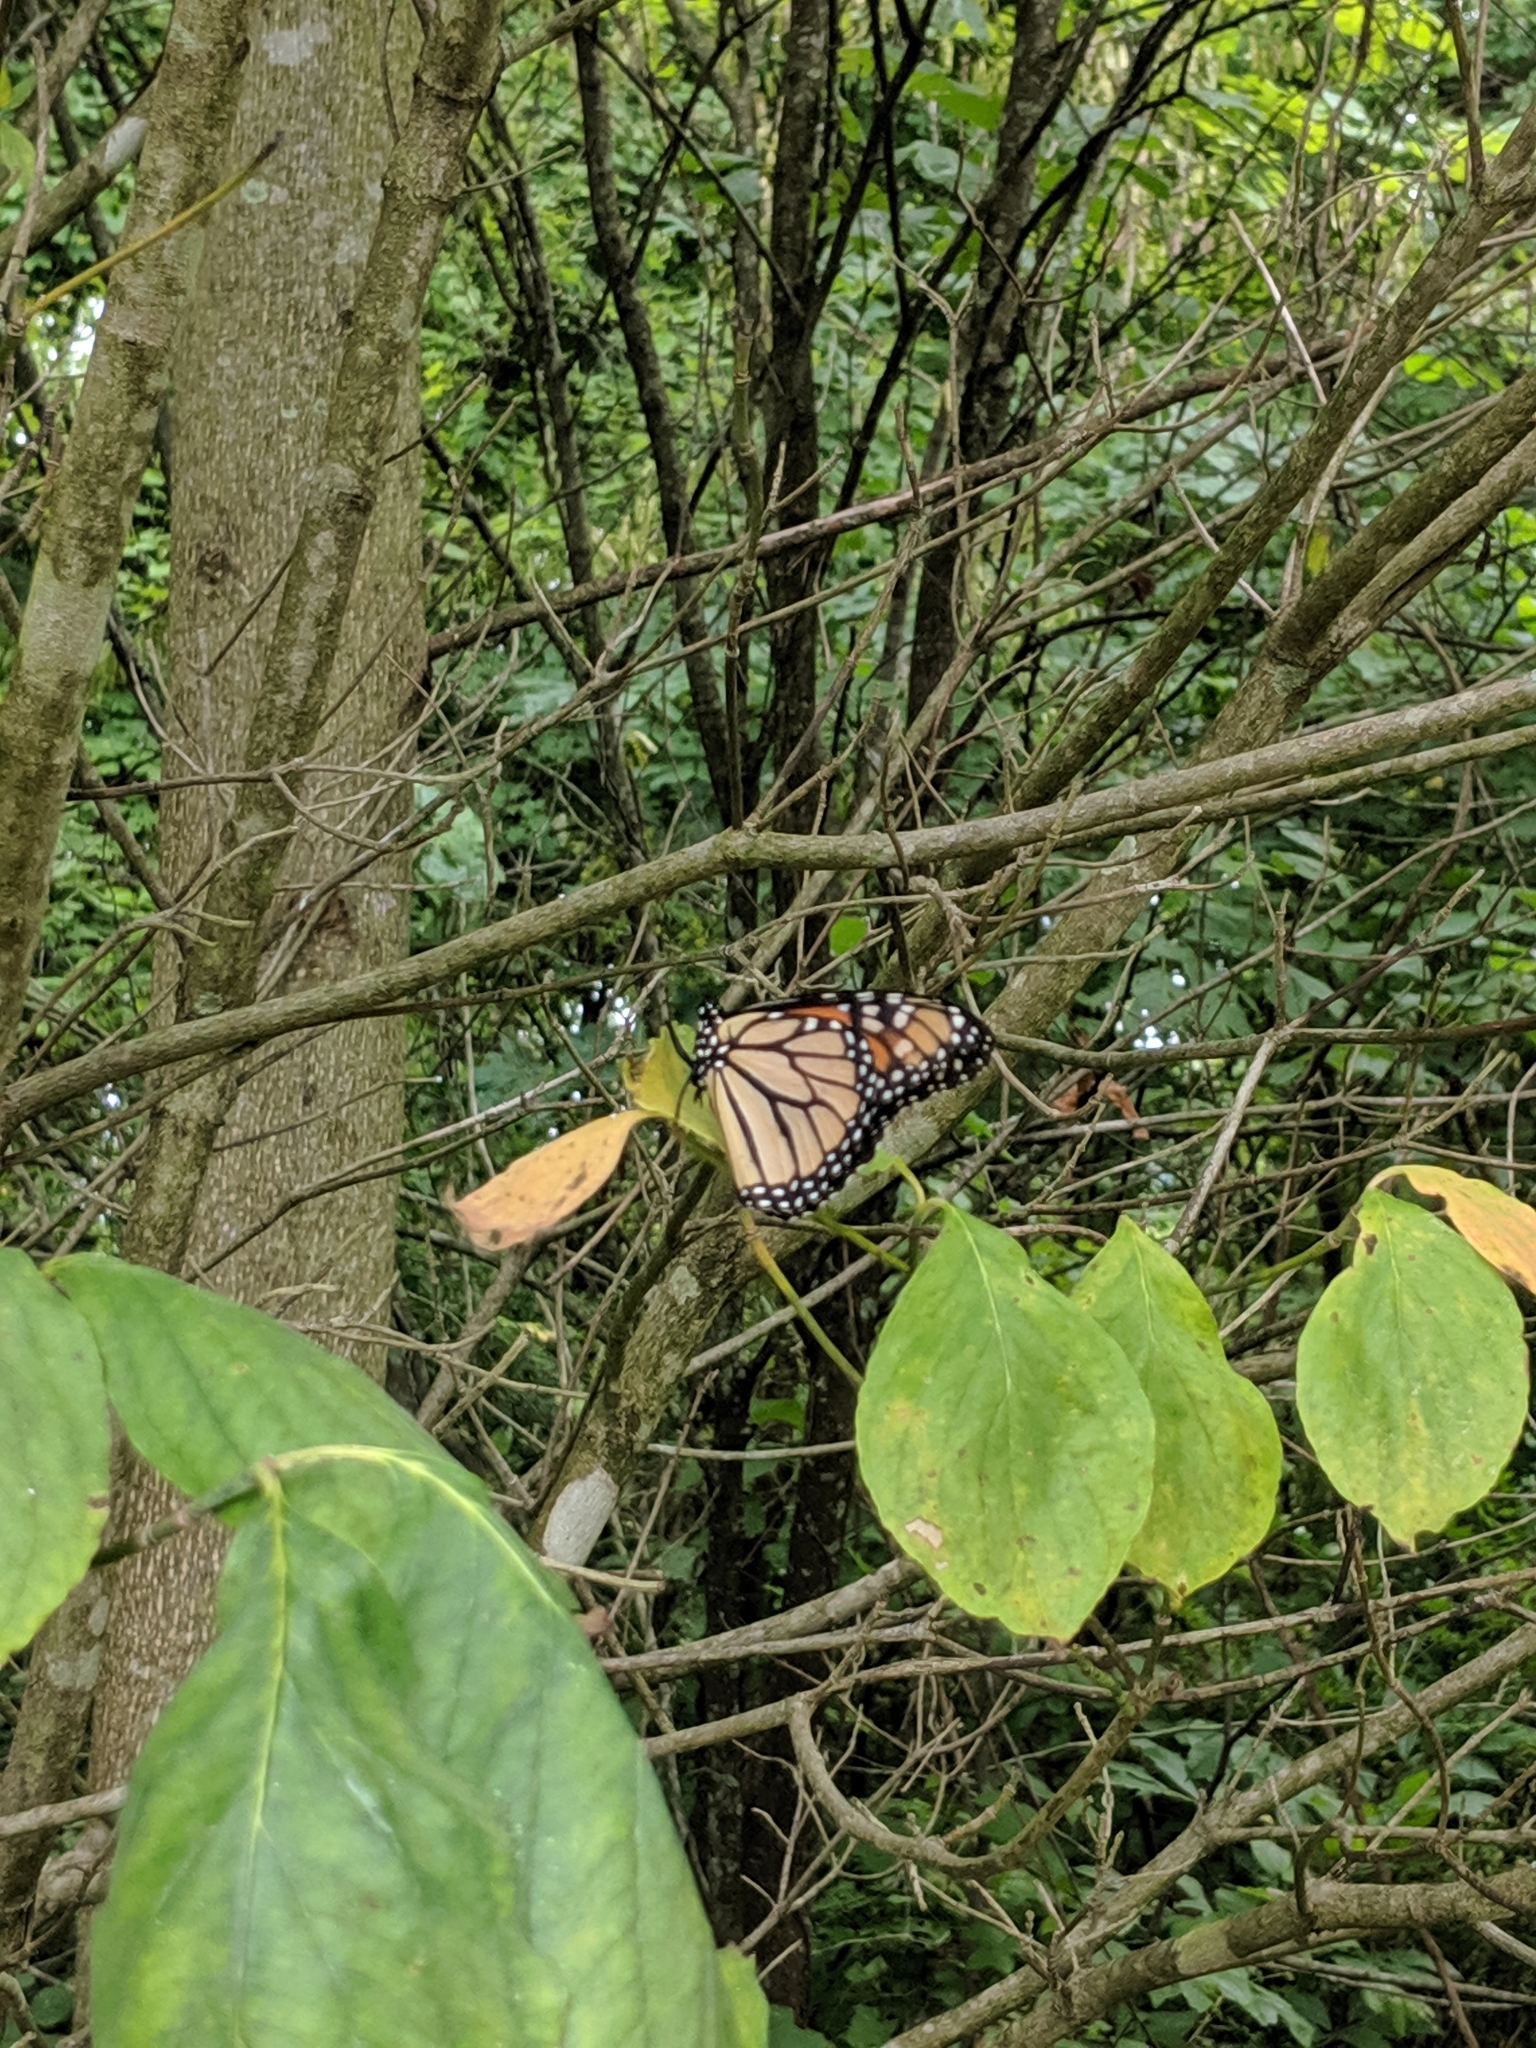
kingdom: Animalia
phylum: Arthropoda
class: Insecta
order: Lepidoptera
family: Nymphalidae
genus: Danaus
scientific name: Danaus plexippus
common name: Monarch
